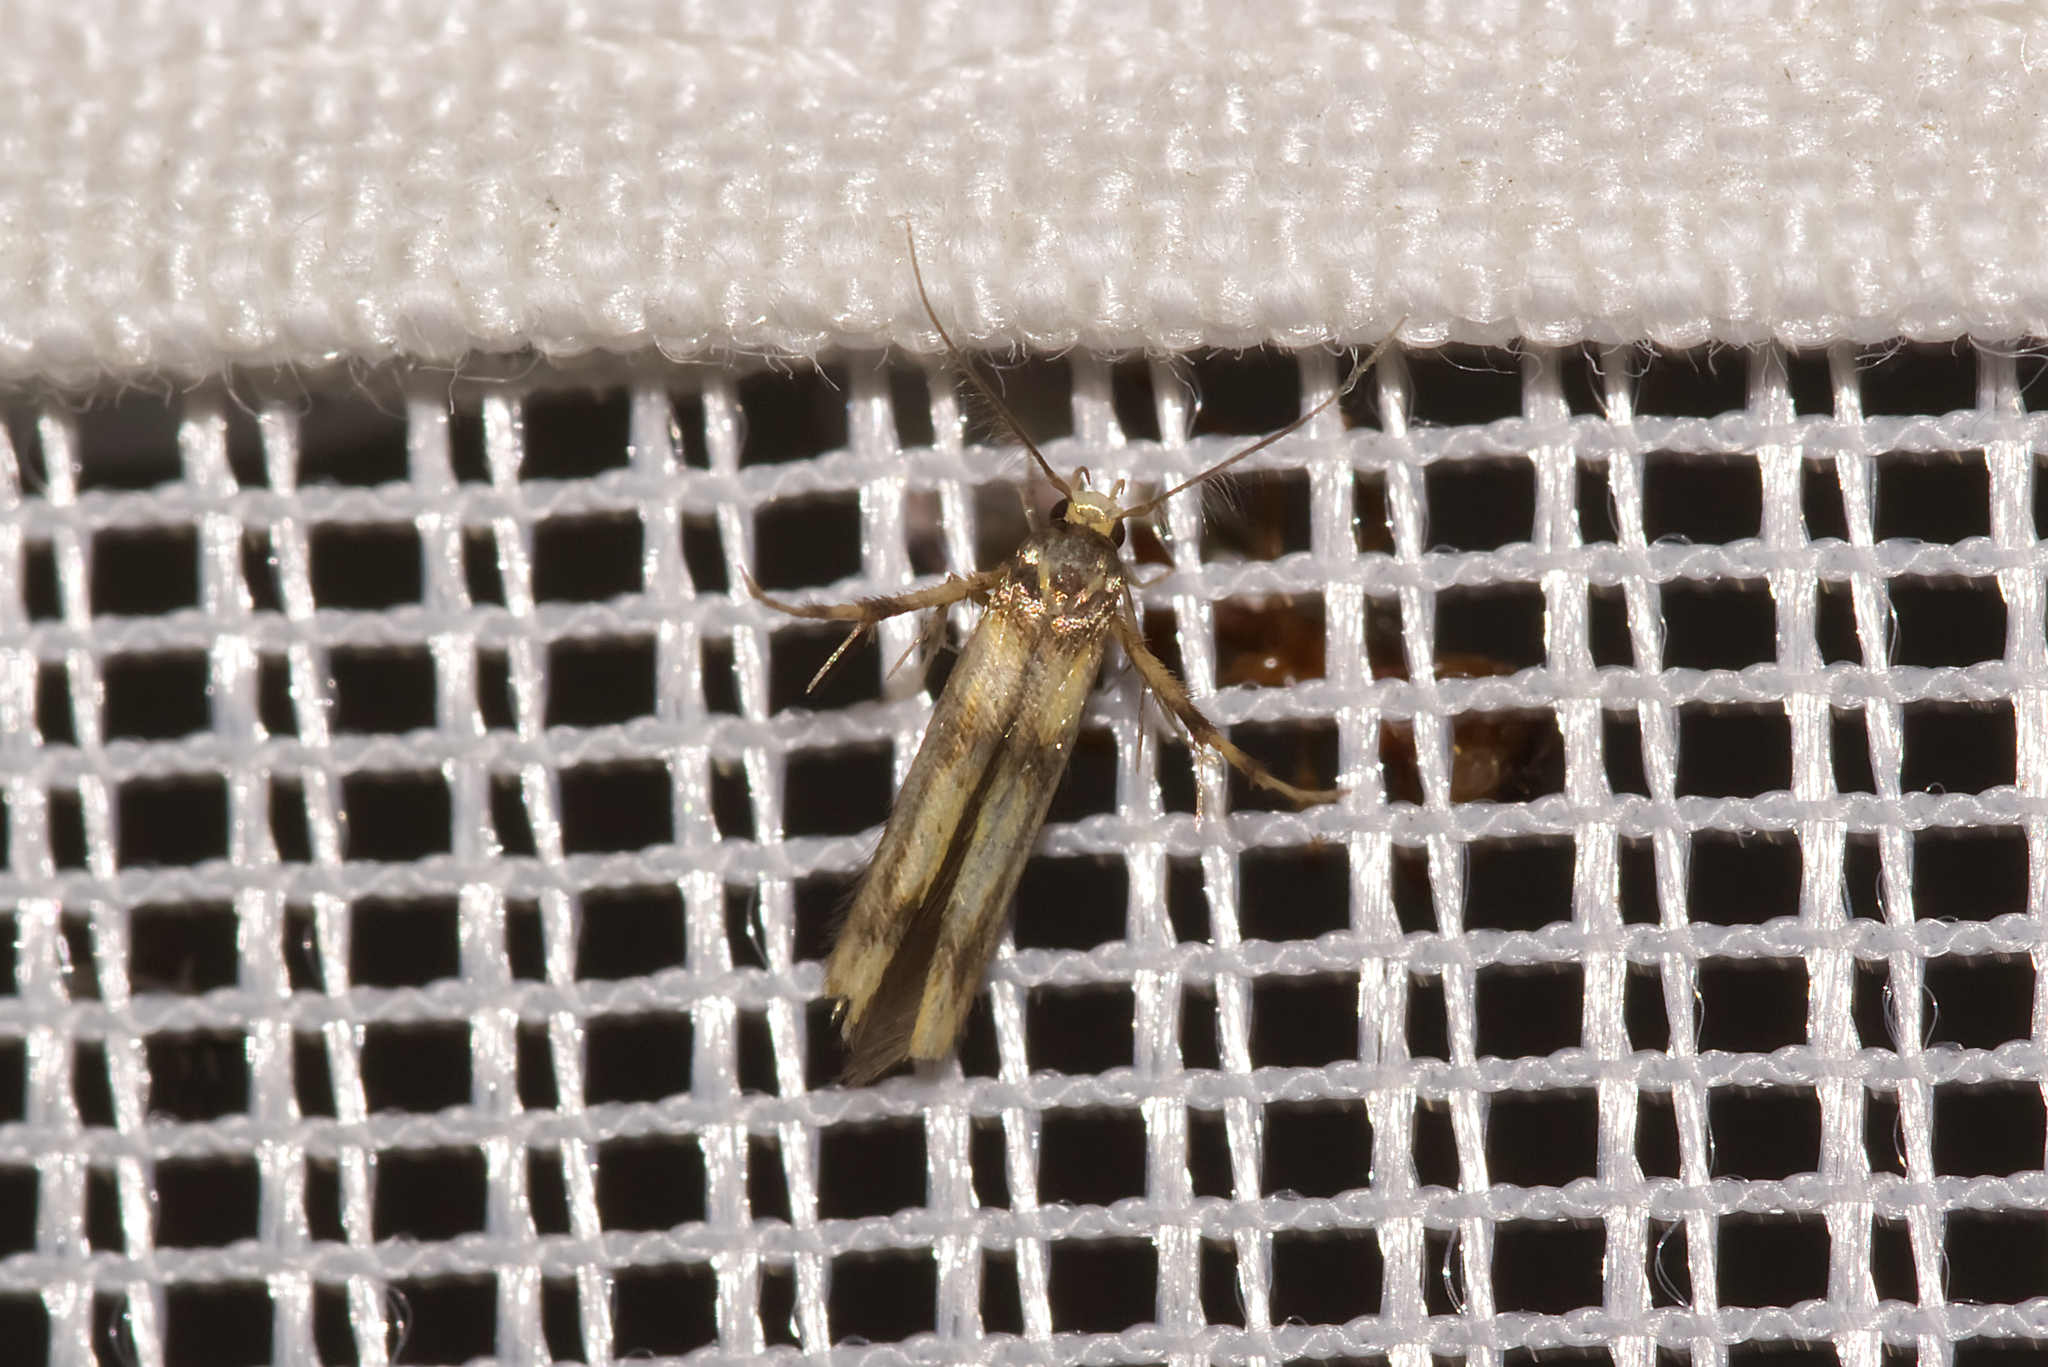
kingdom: Animalia
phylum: Arthropoda
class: Insecta
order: Lepidoptera
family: Stathmopodidae
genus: Stathmopoda
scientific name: Stathmopoda pedella
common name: Alder signal
